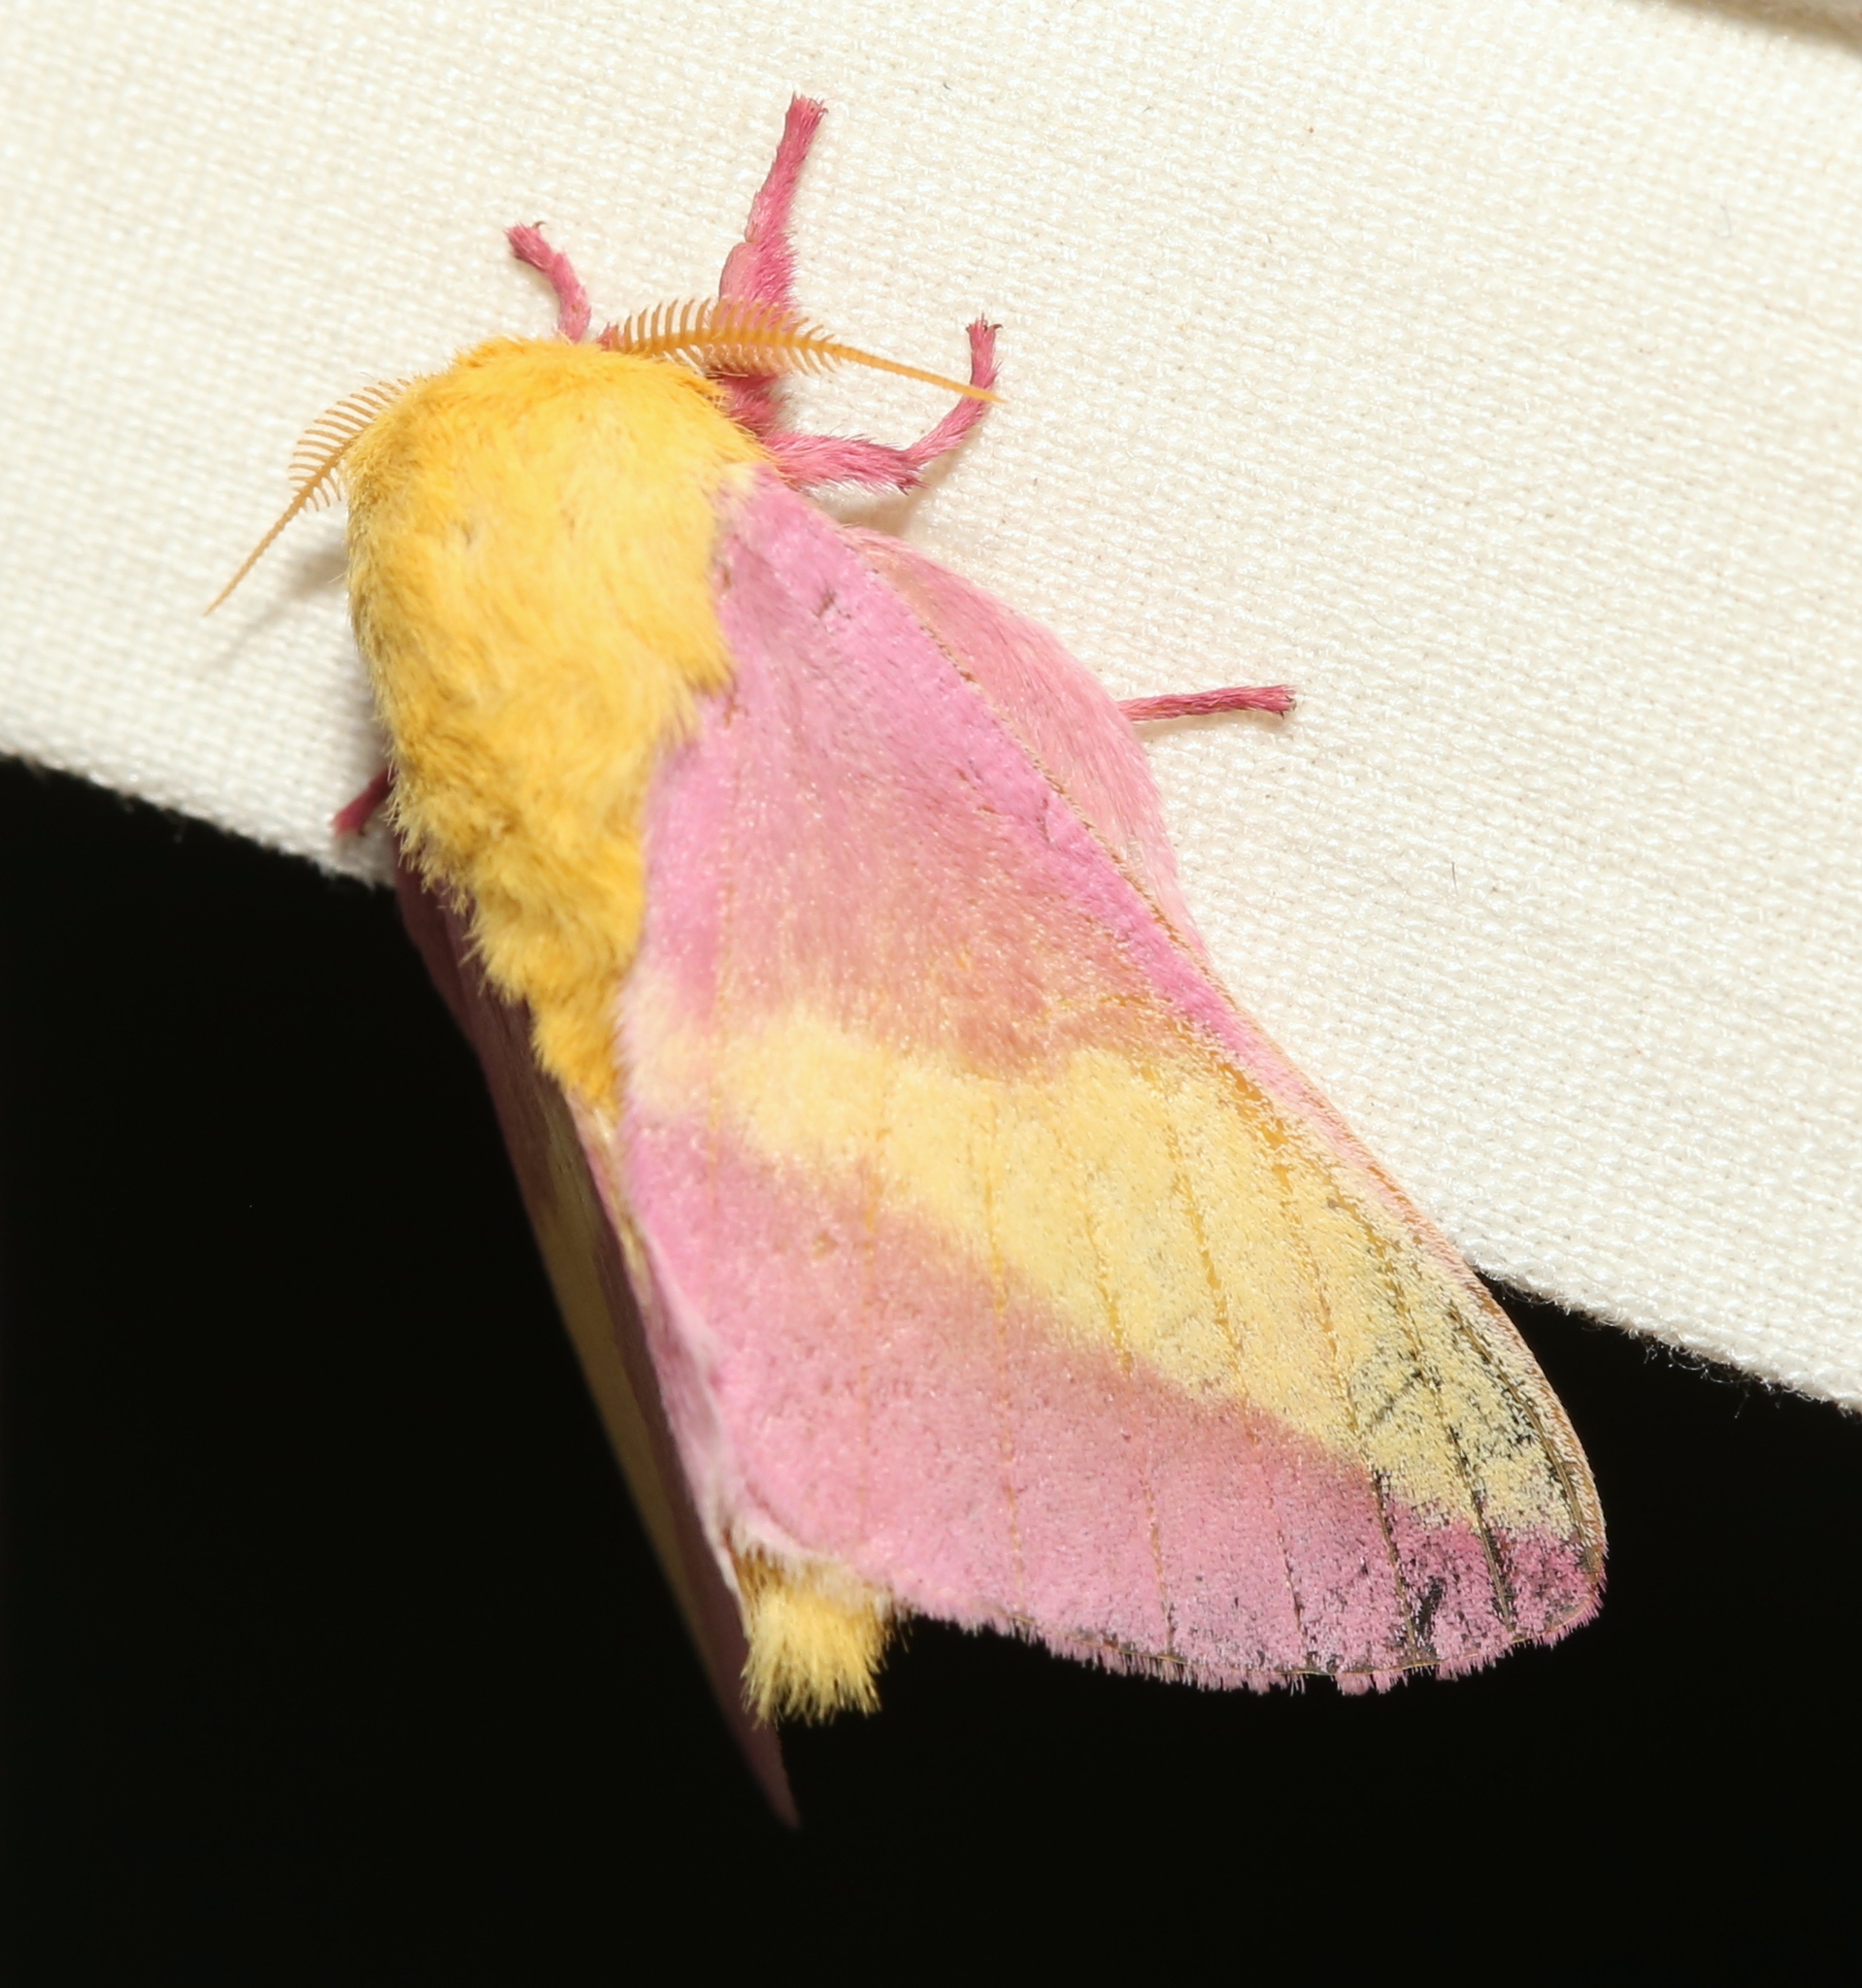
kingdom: Animalia
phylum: Arthropoda
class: Insecta
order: Lepidoptera
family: Saturniidae
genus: Dryocampa
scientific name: Dryocampa rubicunda
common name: Rosy maple moth
